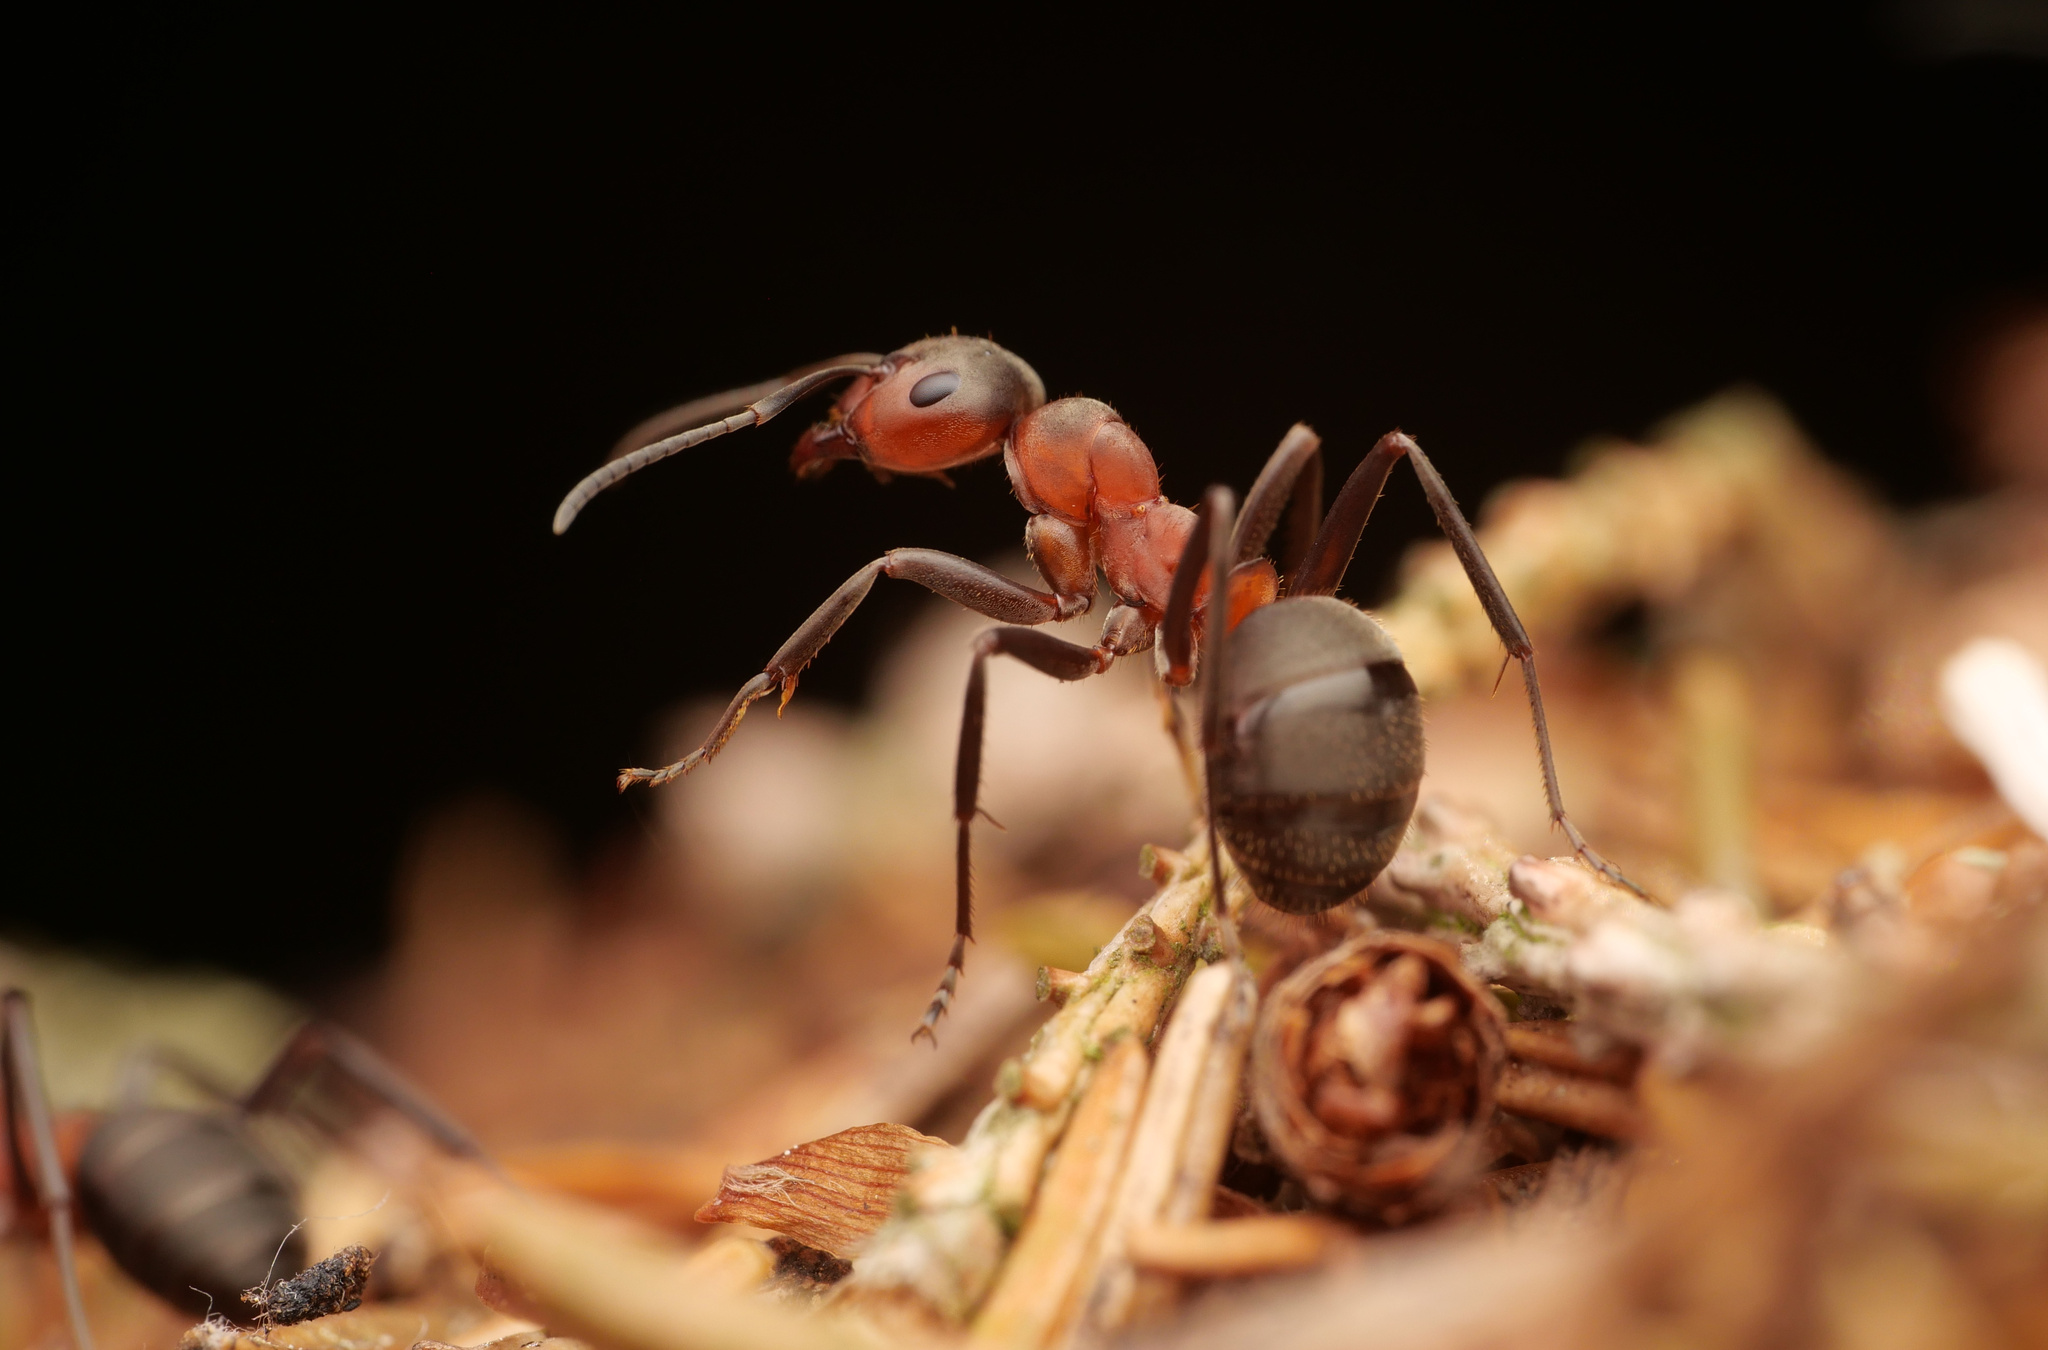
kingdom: Animalia
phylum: Arthropoda
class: Insecta
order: Hymenoptera
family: Formicidae
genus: Formica
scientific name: Formica rufa
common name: Red wood ant
